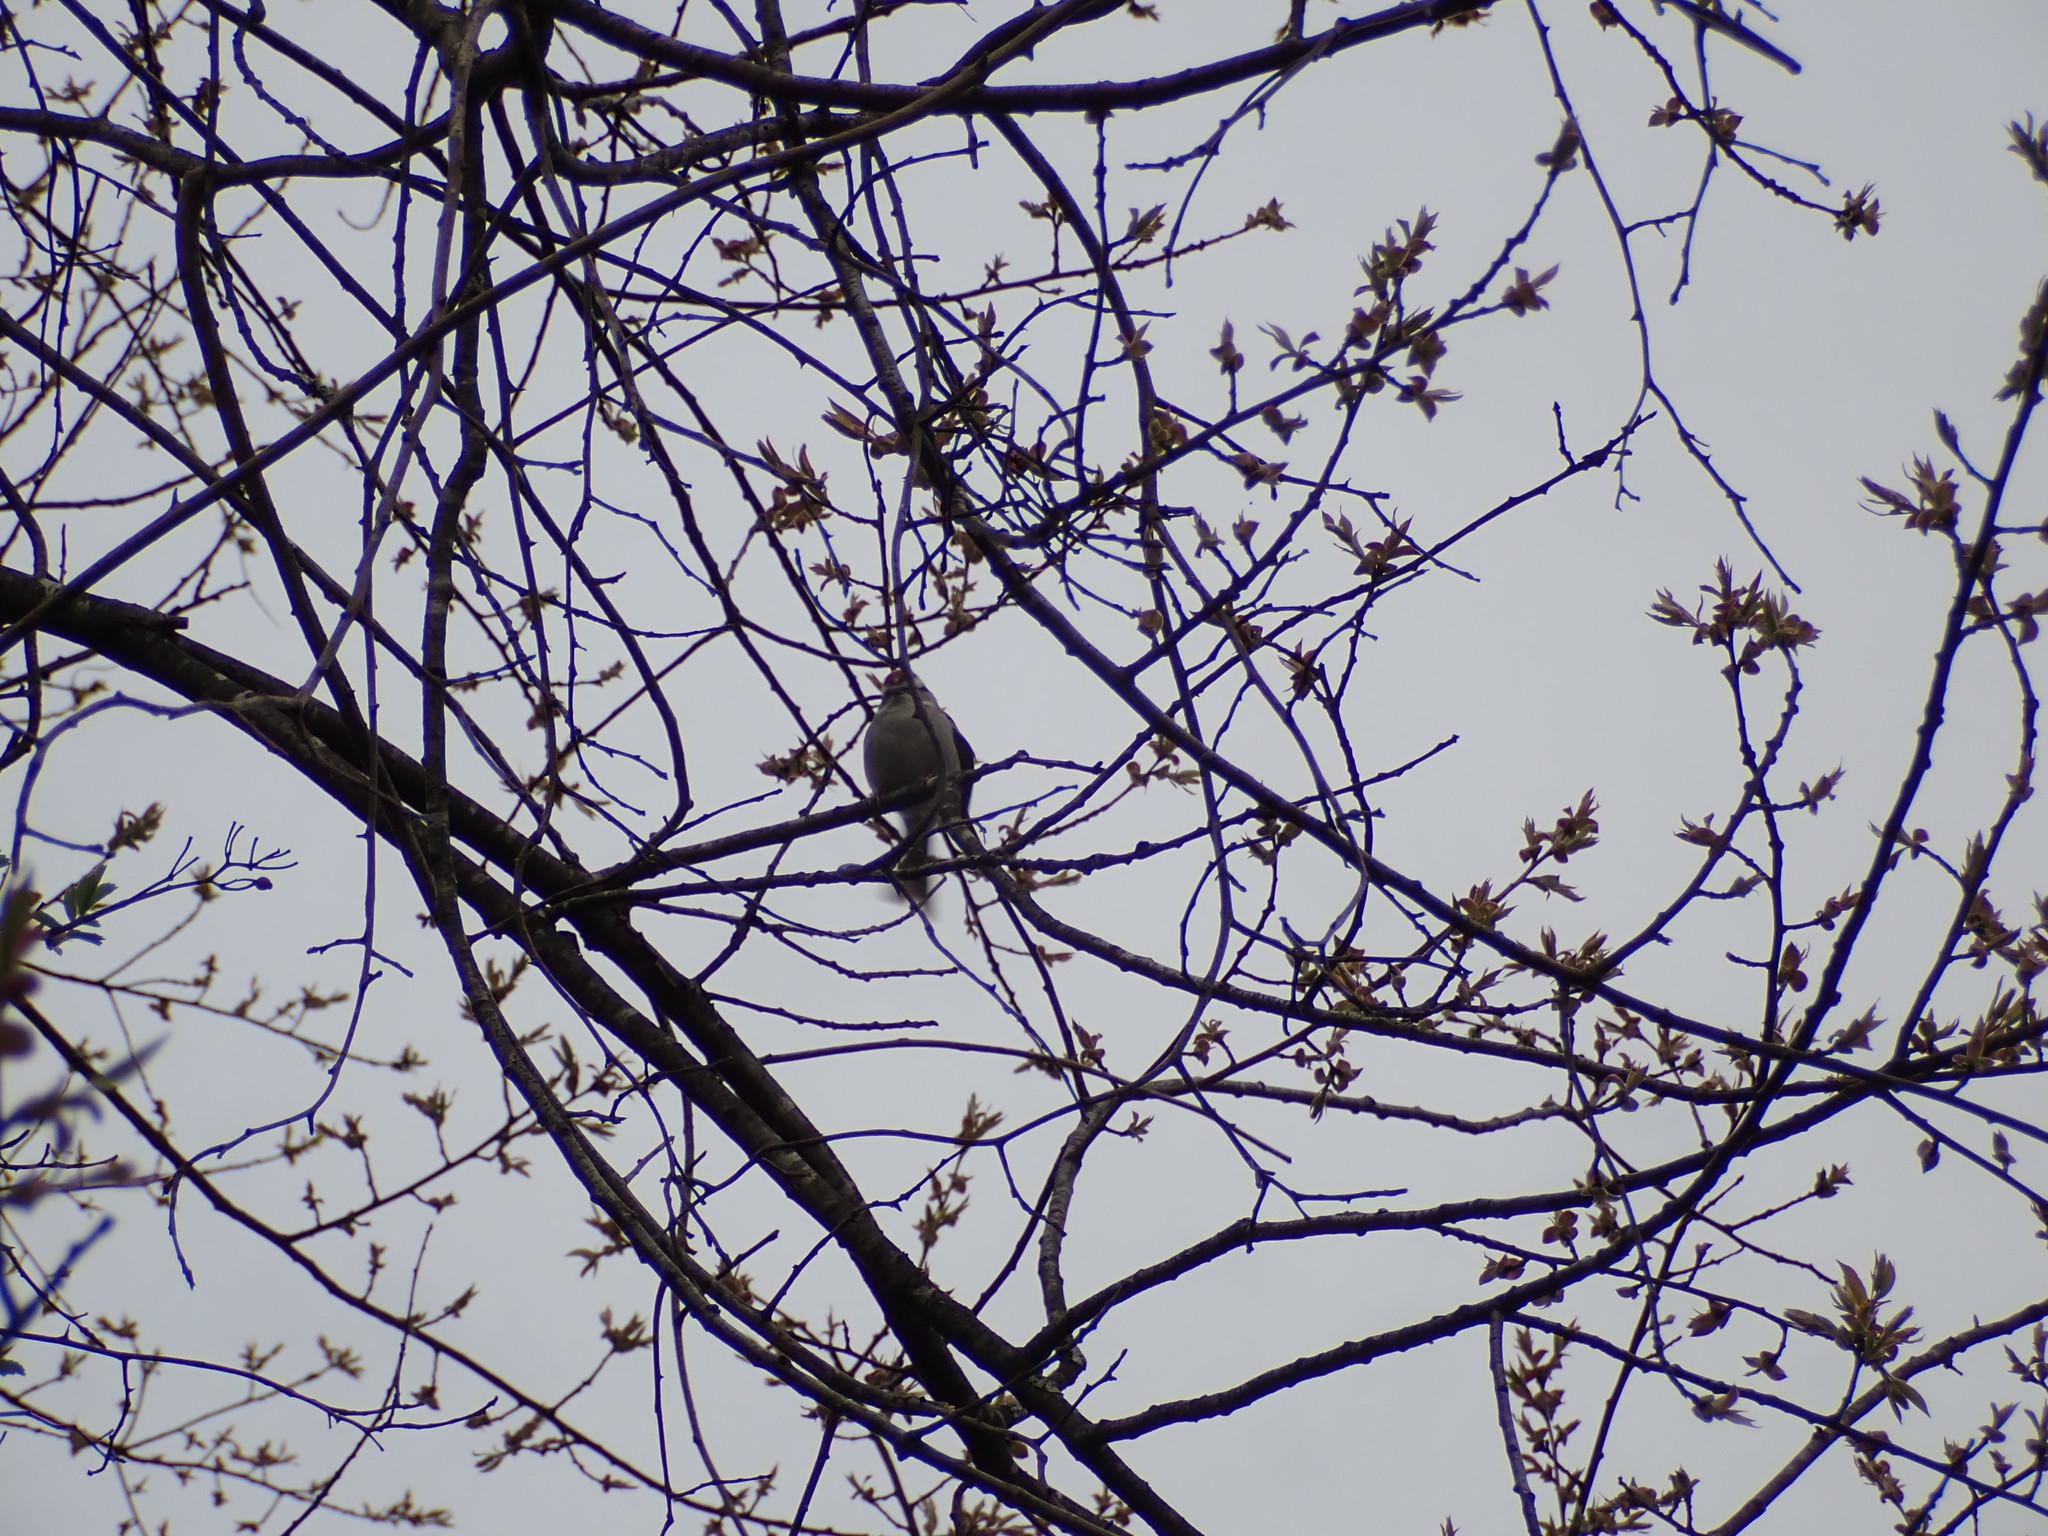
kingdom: Animalia
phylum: Chordata
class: Aves
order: Passeriformes
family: Passerellidae
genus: Spizella
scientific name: Spizella passerina
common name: Chipping sparrow
